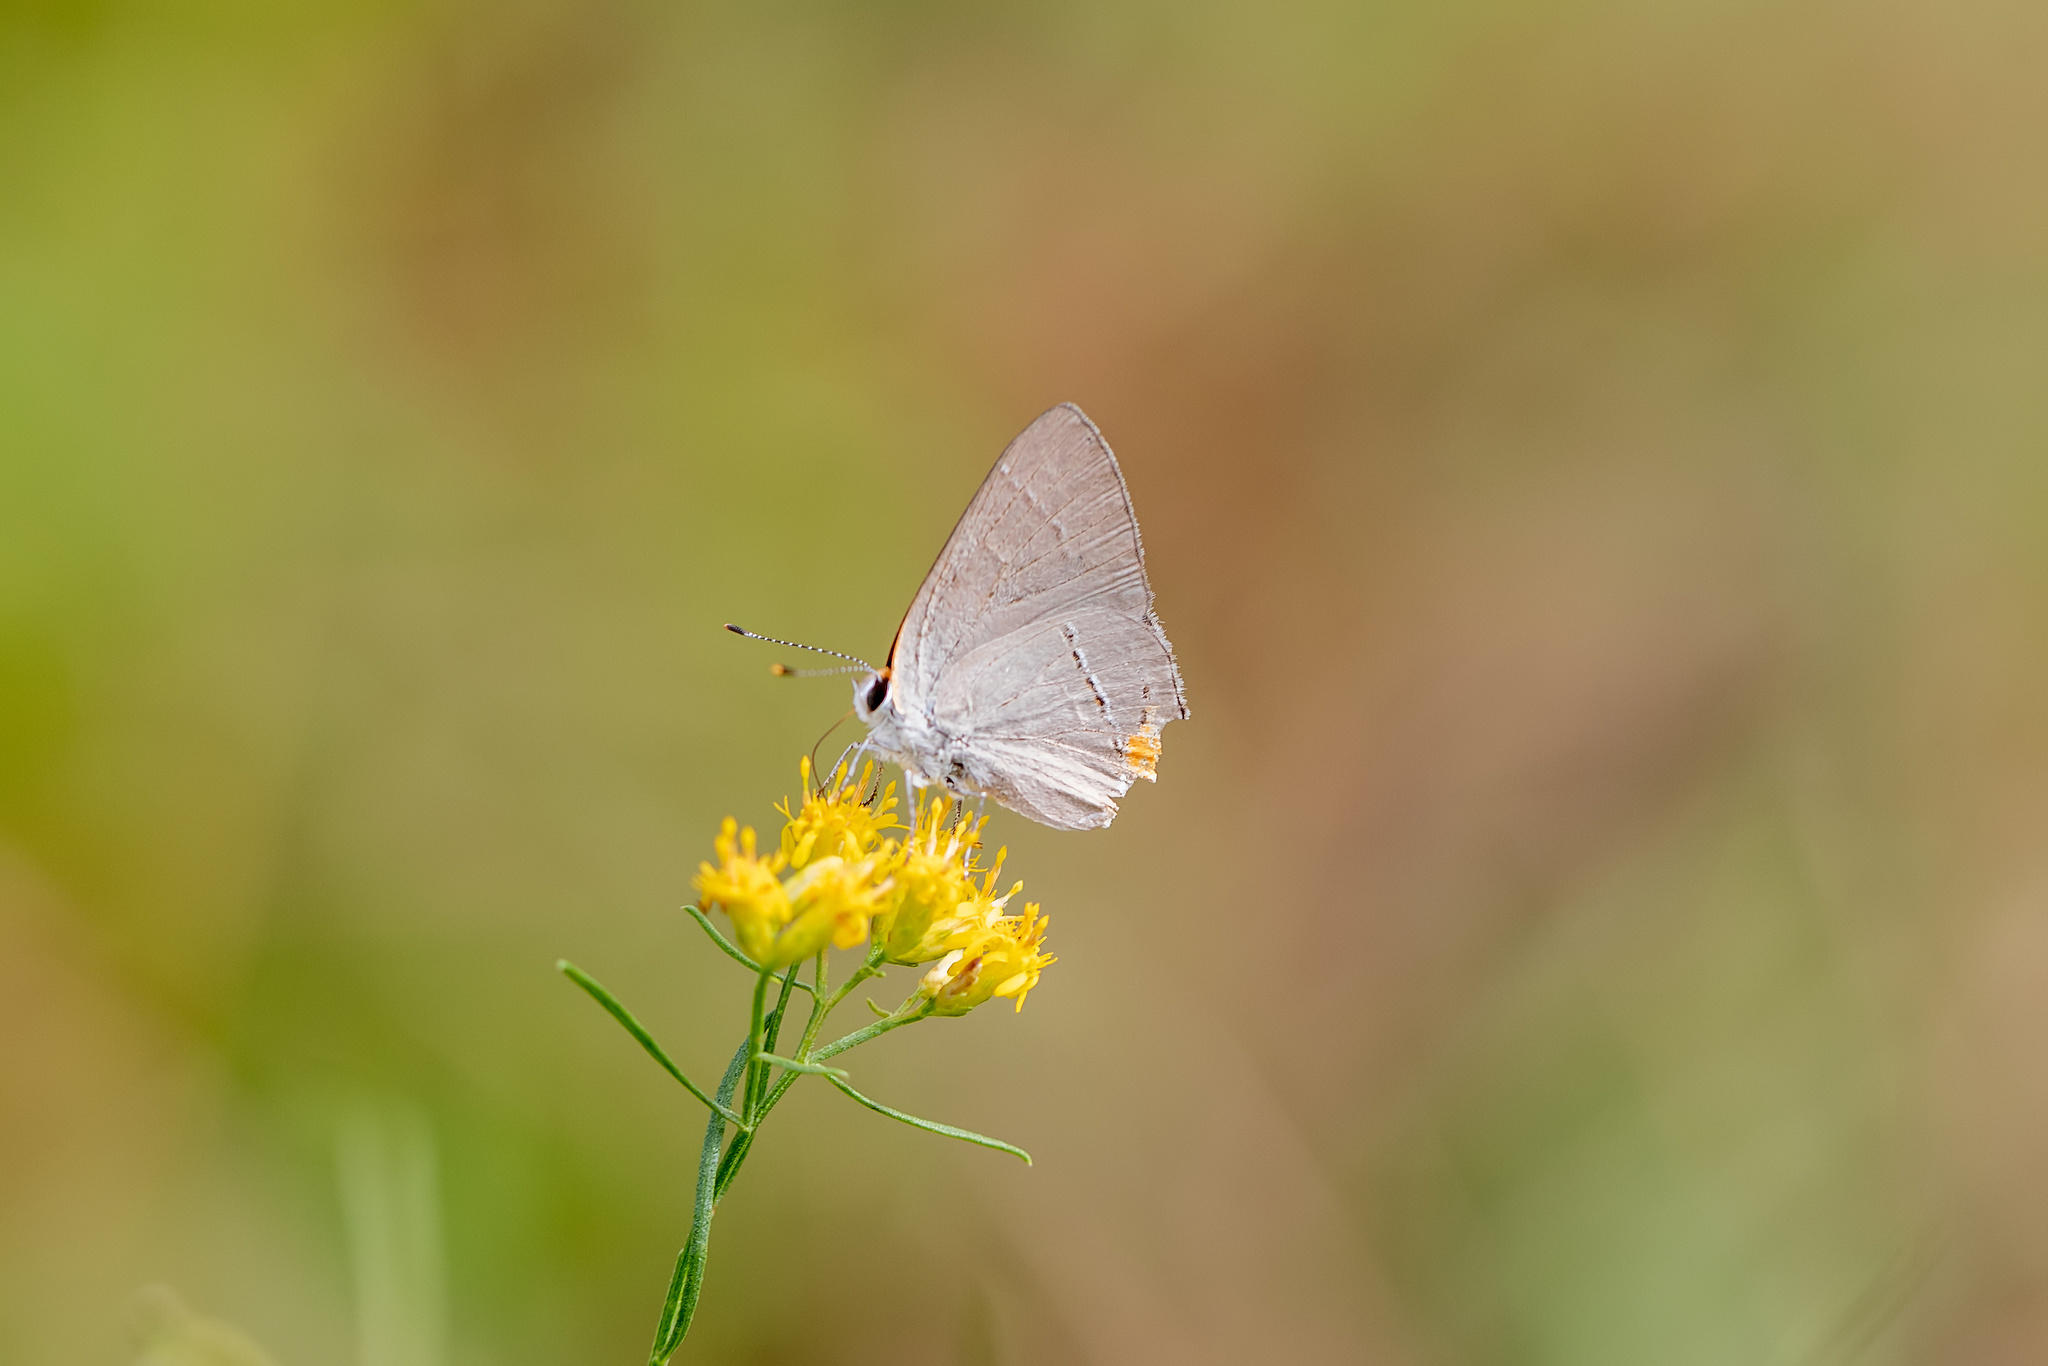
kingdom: Animalia
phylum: Arthropoda
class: Insecta
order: Lepidoptera
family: Lycaenidae
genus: Strymon
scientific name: Strymon melinus
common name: Gray hairstreak
